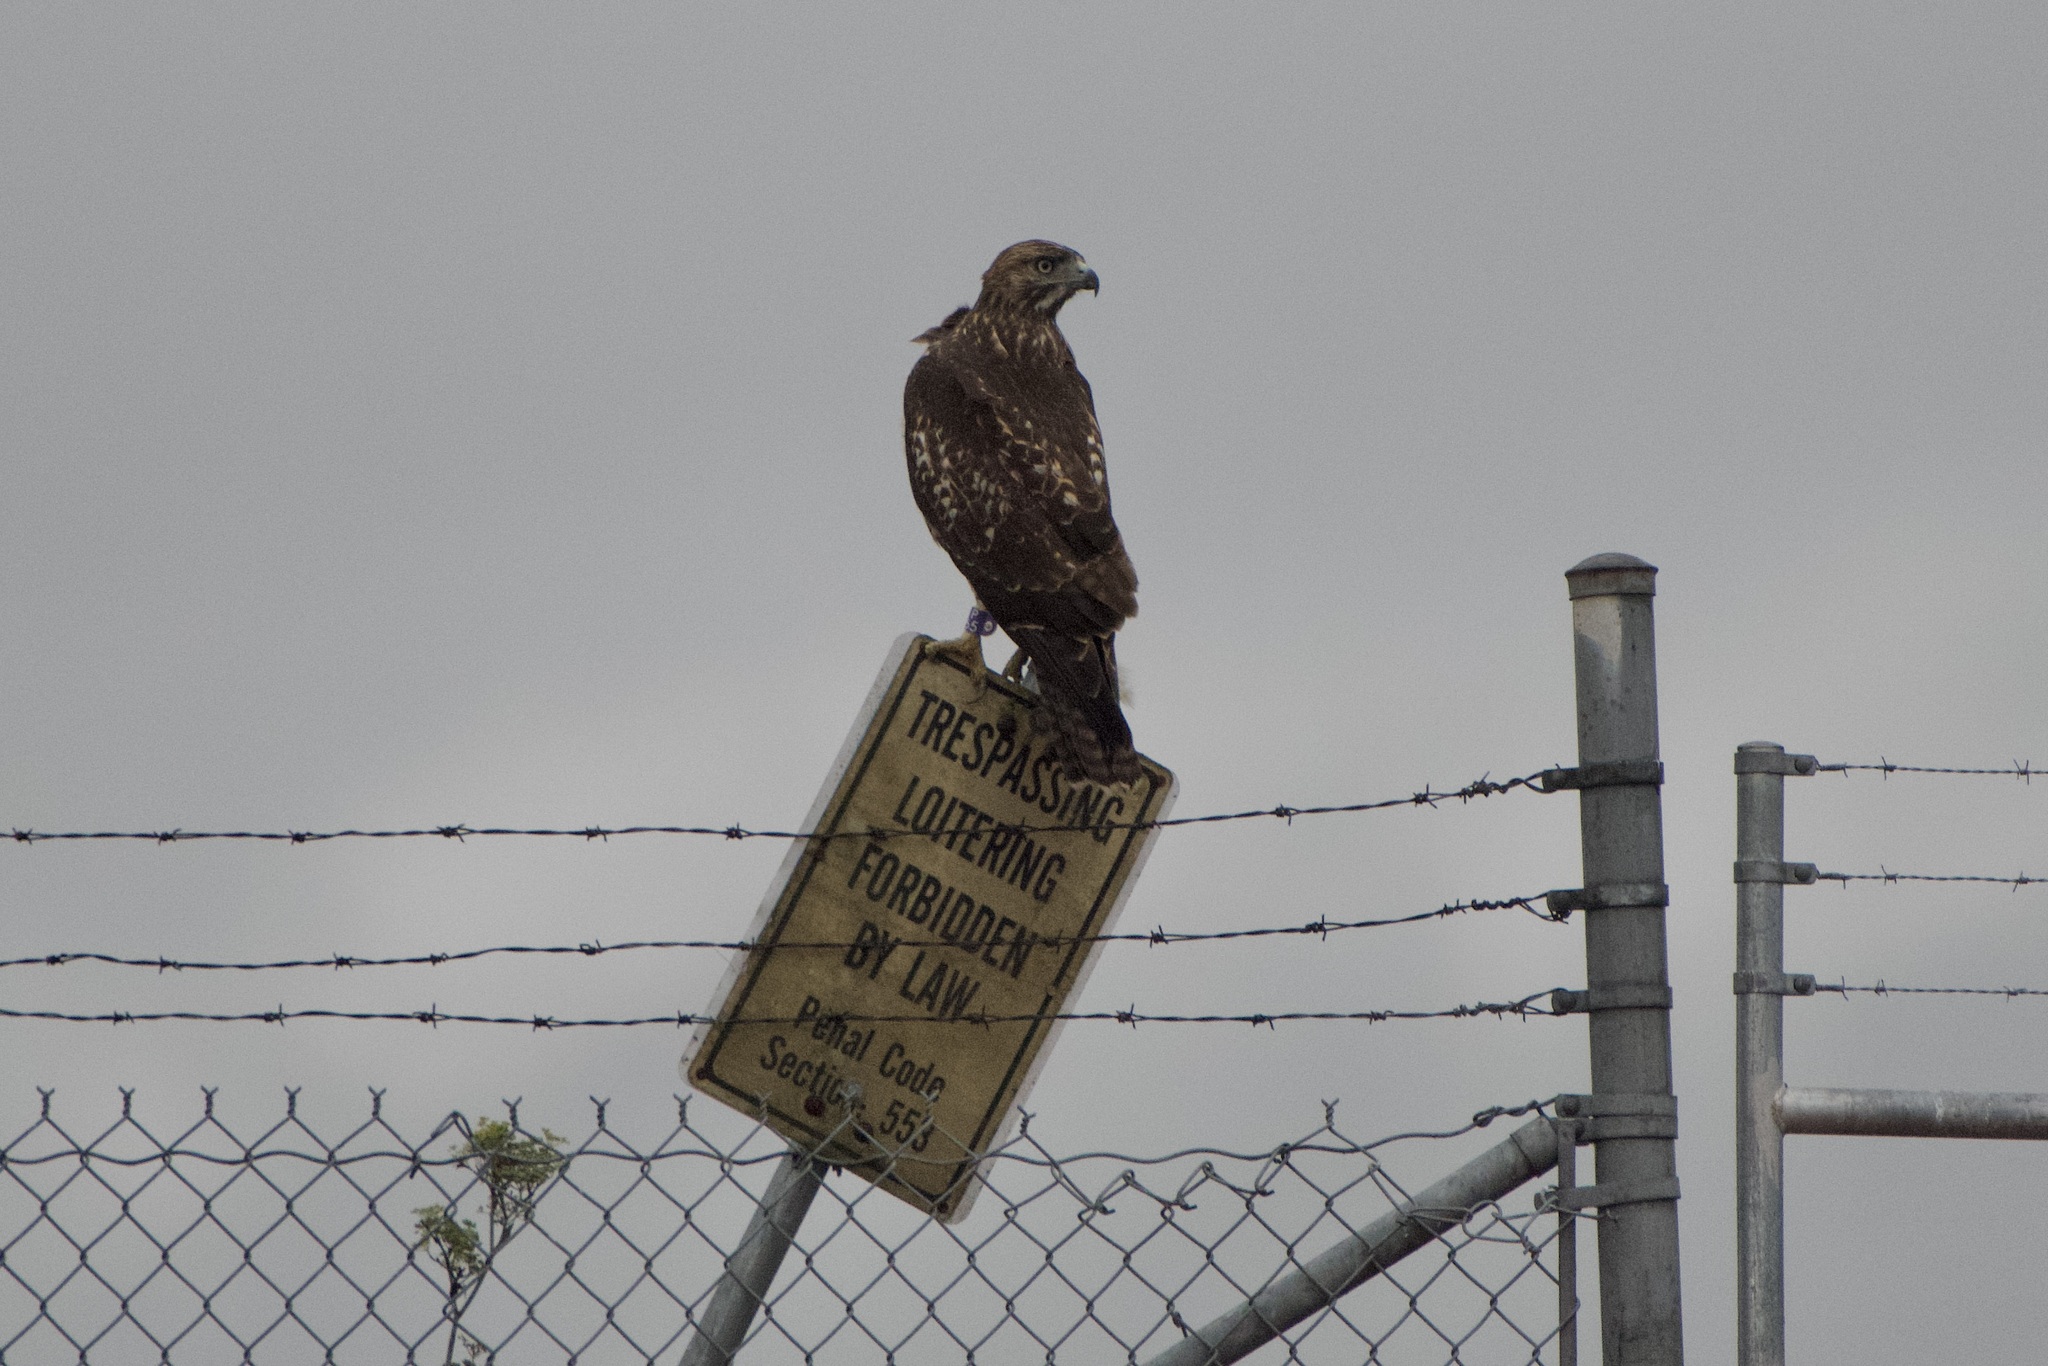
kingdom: Animalia
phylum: Chordata
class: Aves
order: Accipitriformes
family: Accipitridae
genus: Buteo
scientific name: Buteo jamaicensis
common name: Red-tailed hawk
